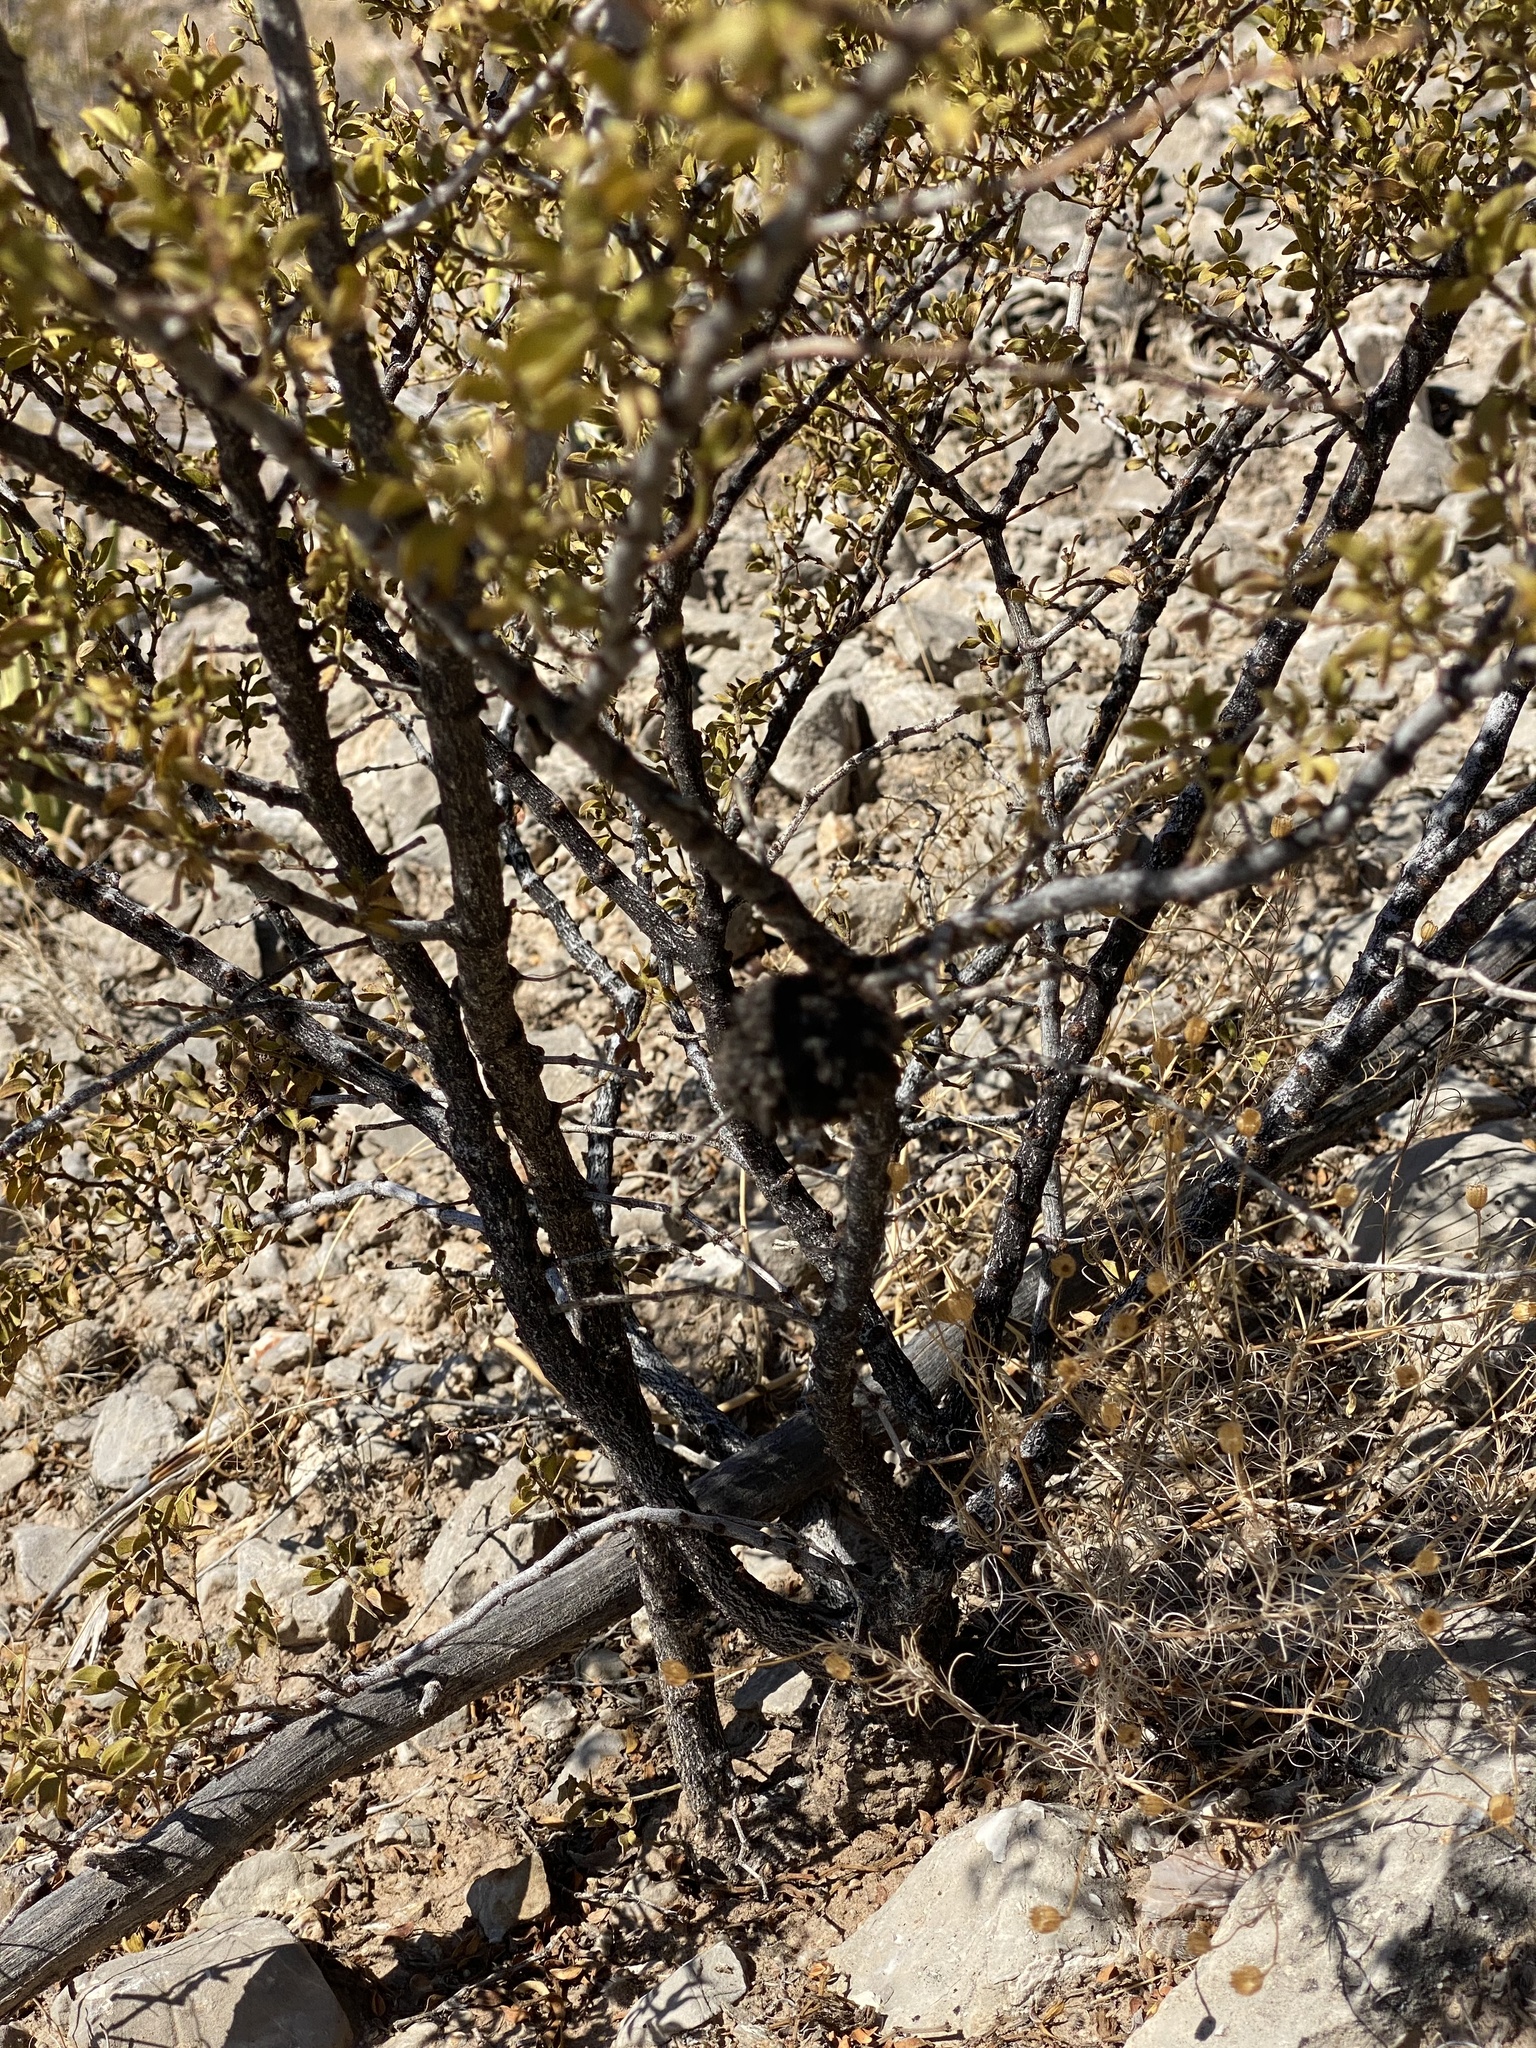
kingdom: Animalia
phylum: Arthropoda
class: Insecta
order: Diptera
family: Cecidomyiidae
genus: Asphondylia
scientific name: Asphondylia auripila
